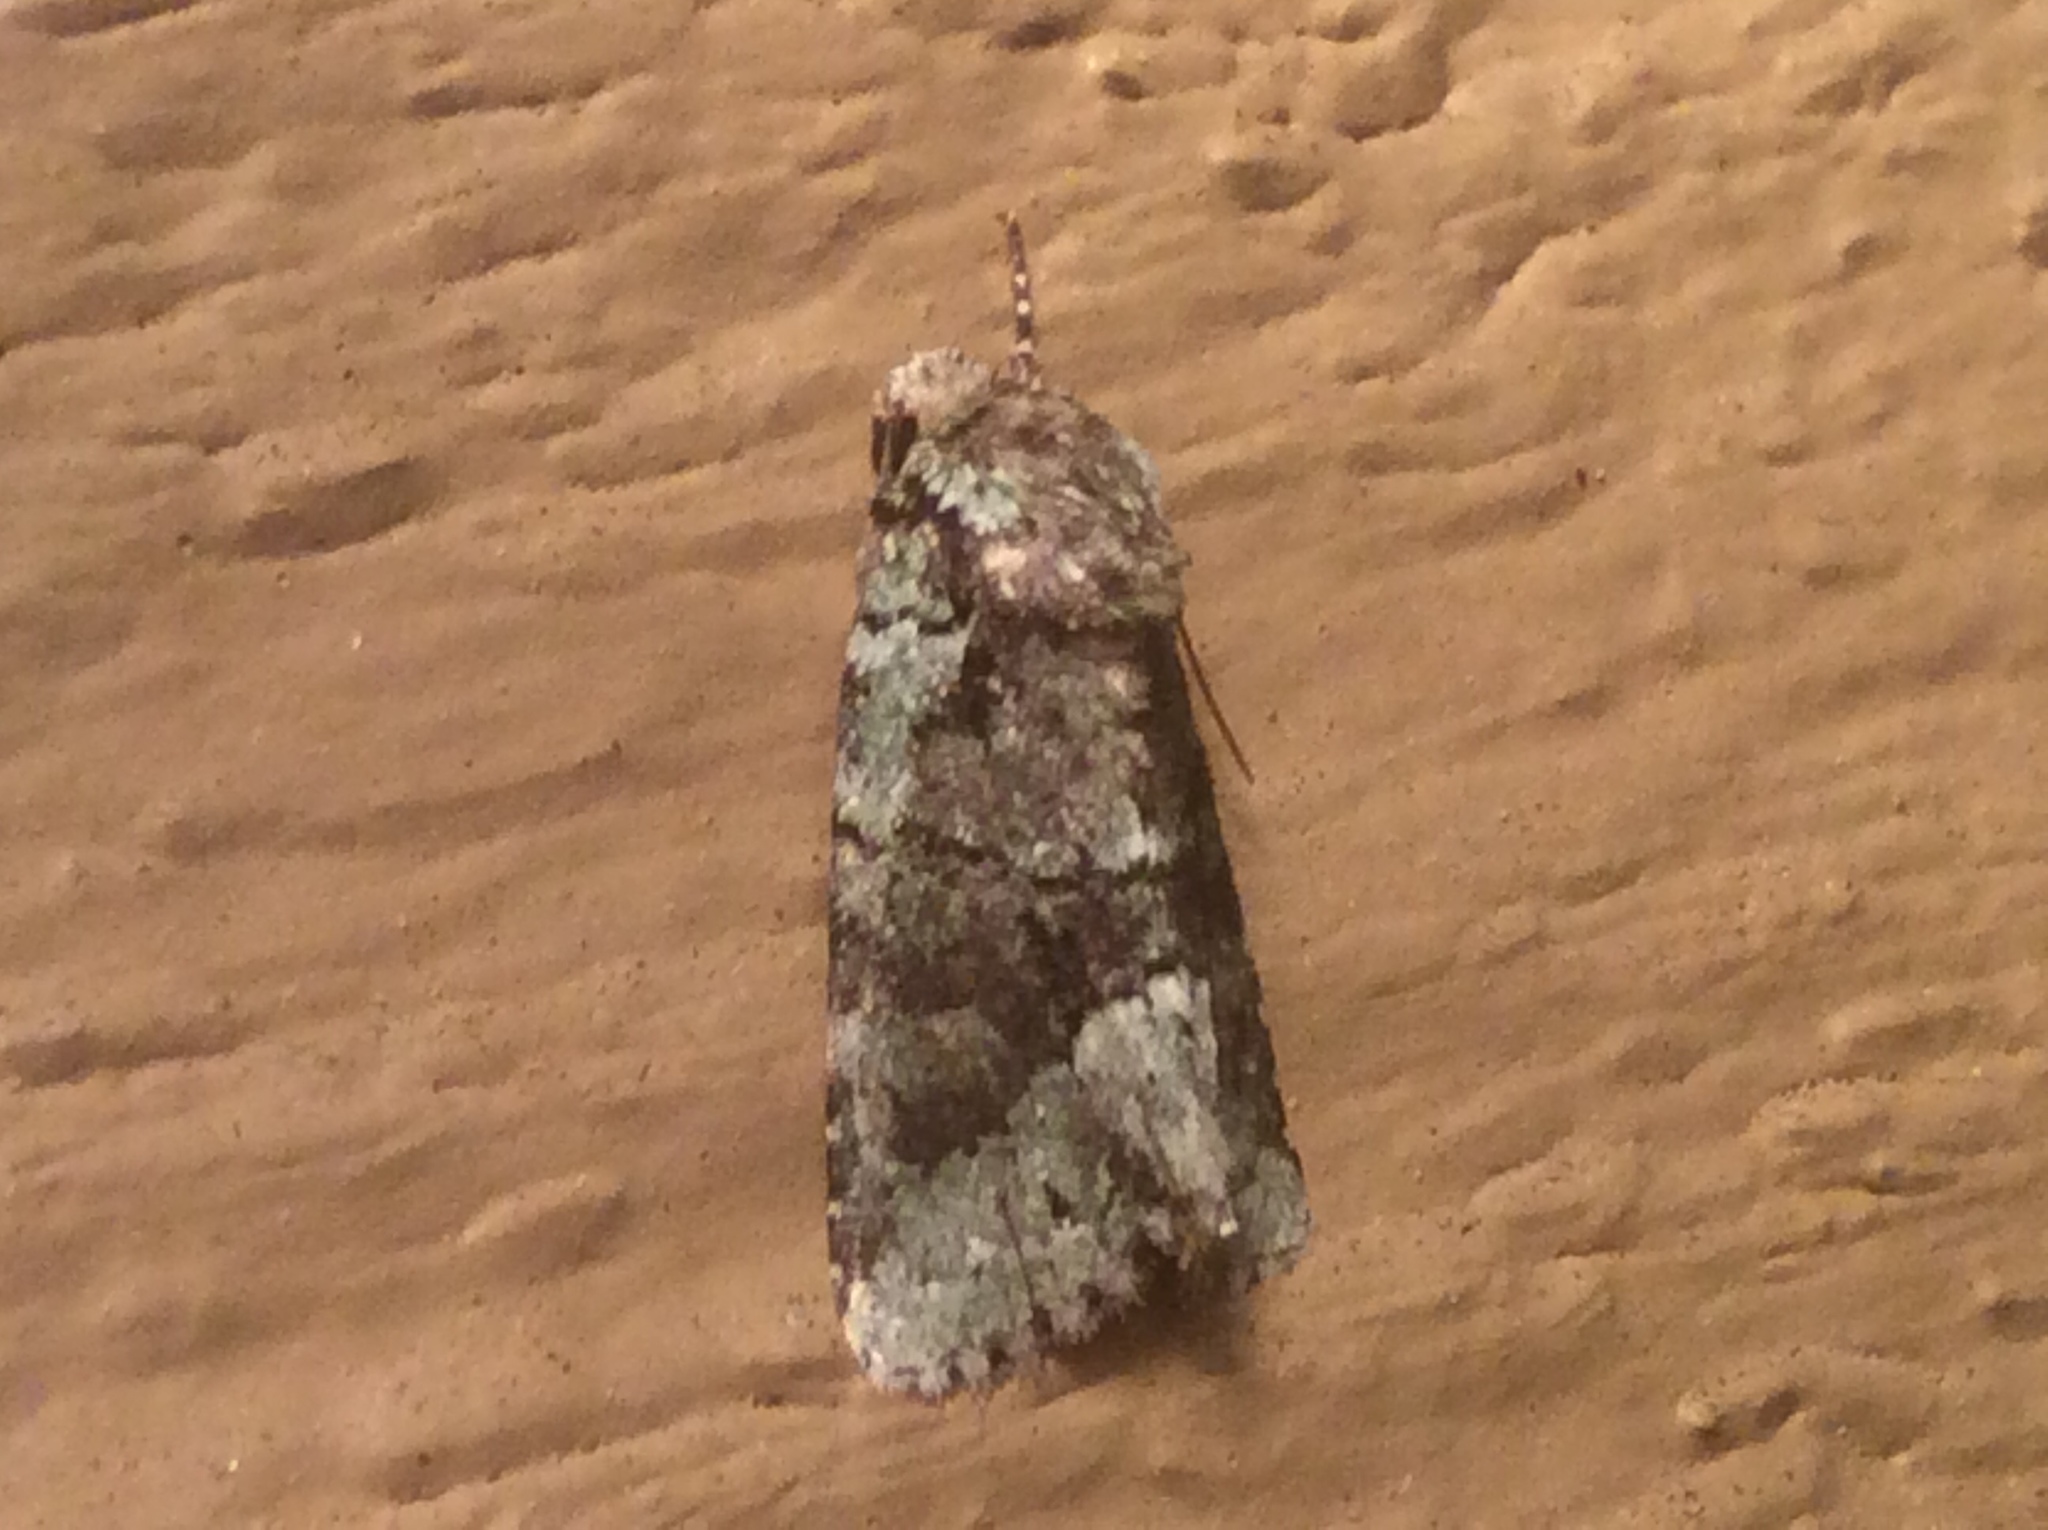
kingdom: Animalia
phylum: Arthropoda
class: Insecta
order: Lepidoptera
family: Noctuidae
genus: Lacinipolia
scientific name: Lacinipolia explicata
